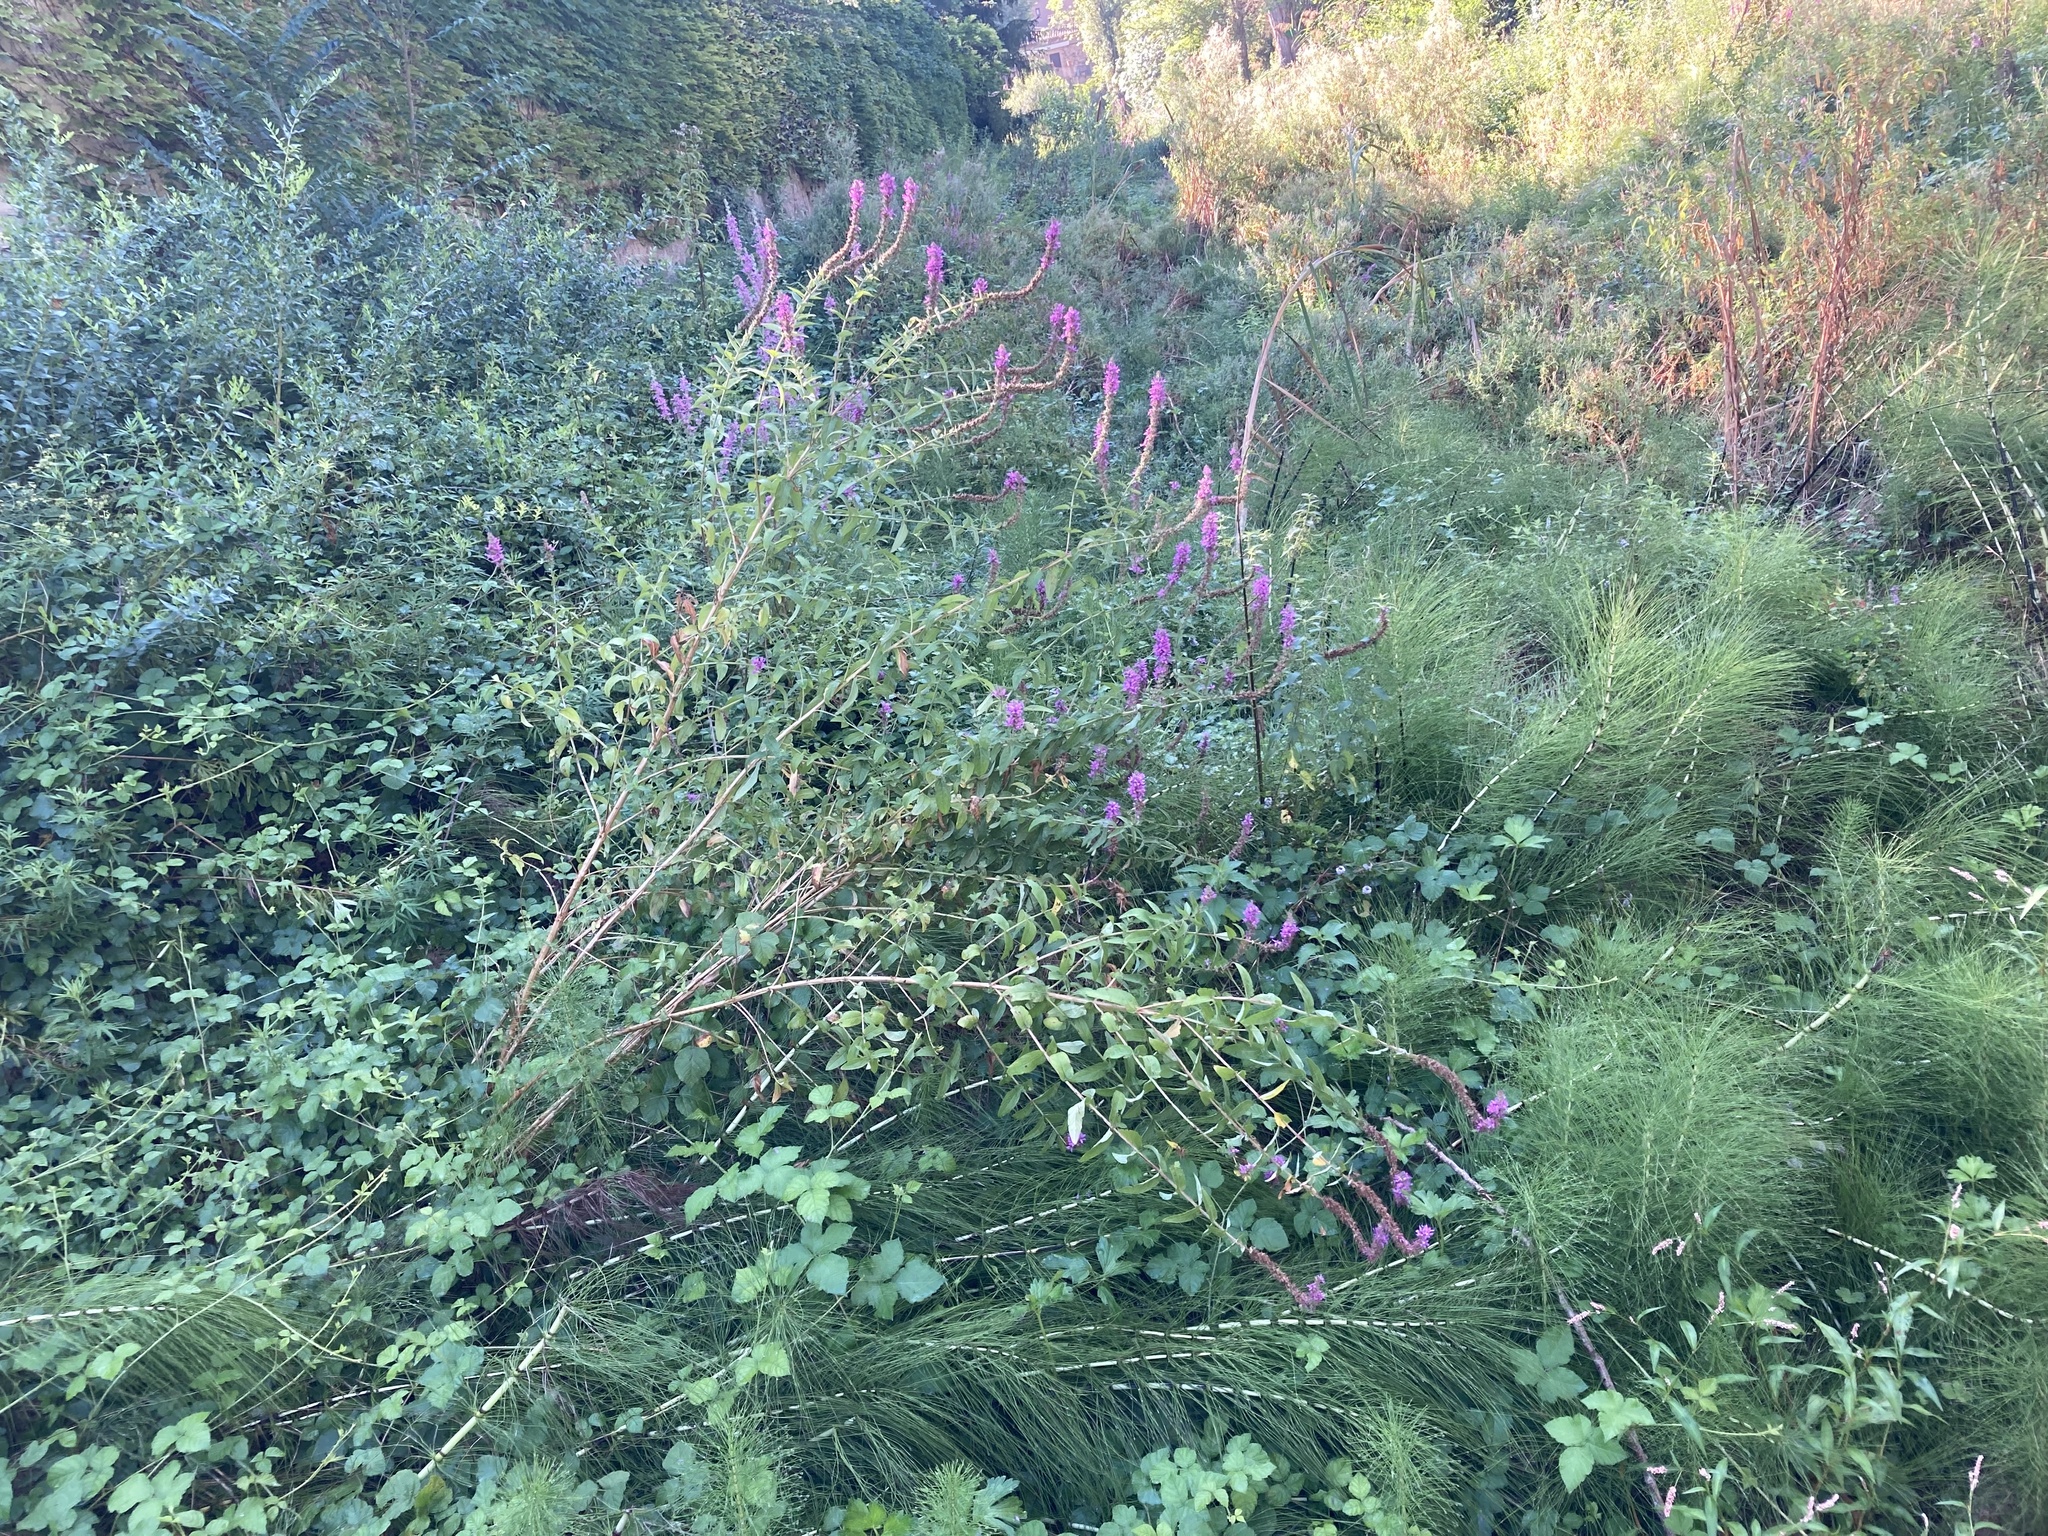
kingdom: Plantae
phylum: Tracheophyta
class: Magnoliopsida
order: Myrtales
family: Lythraceae
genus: Lythrum
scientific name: Lythrum salicaria
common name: Purple loosestrife
